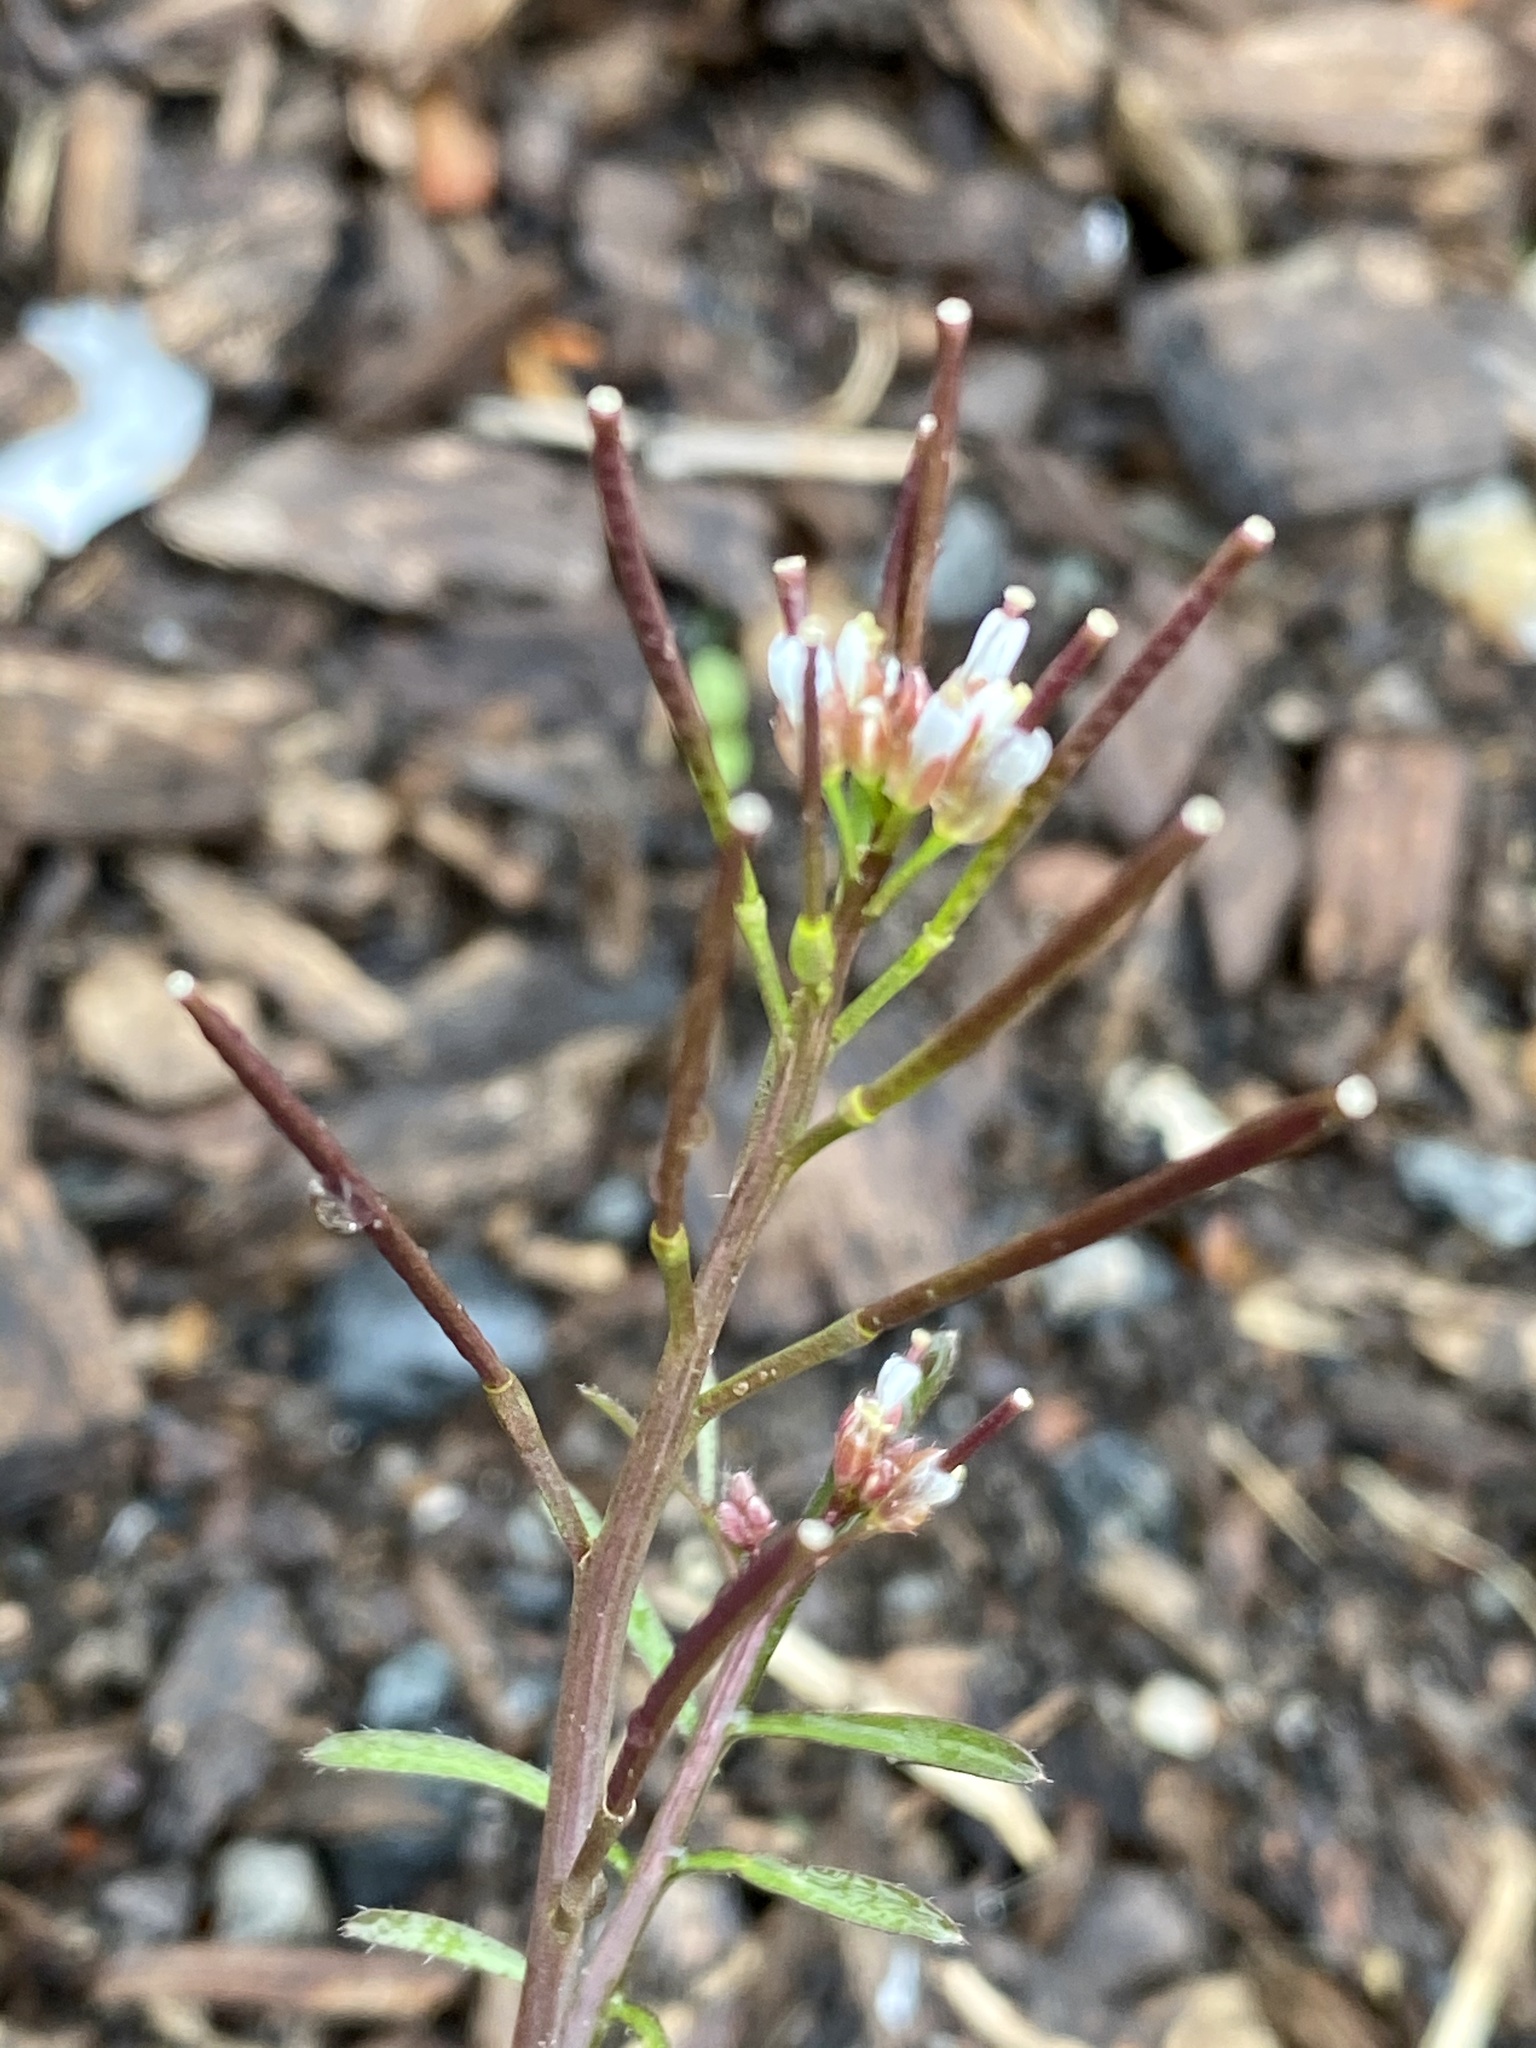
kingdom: Plantae
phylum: Tracheophyta
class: Magnoliopsida
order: Brassicales
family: Brassicaceae
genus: Cardamine
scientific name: Cardamine hirsuta
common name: Hairy bittercress
